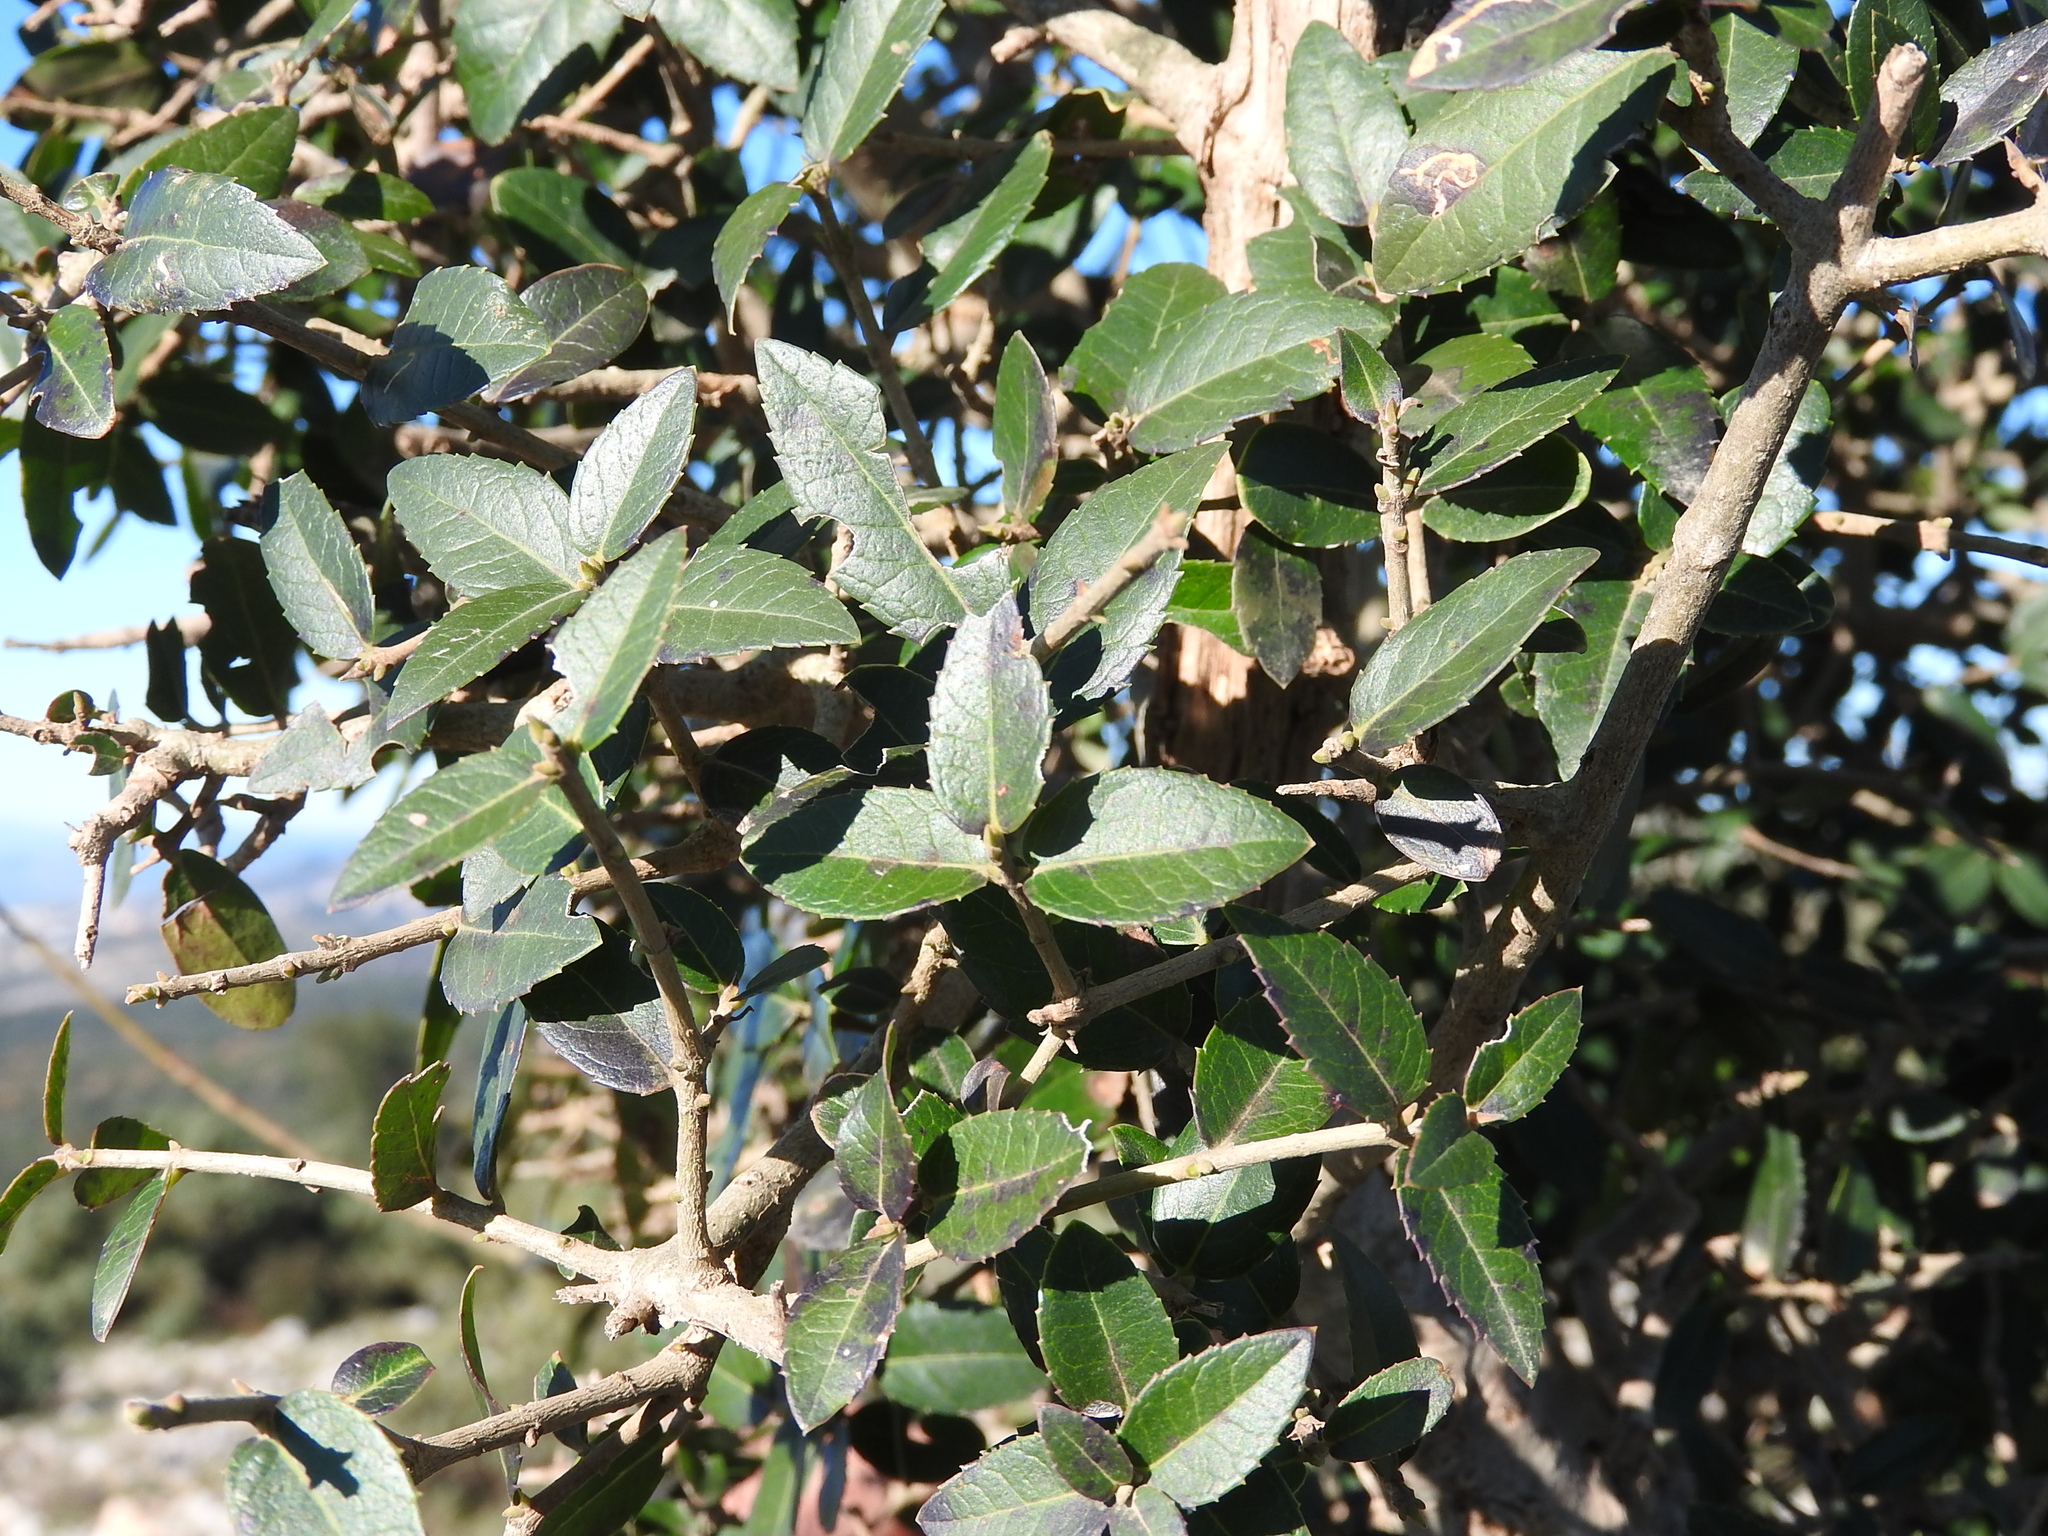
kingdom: Plantae
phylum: Tracheophyta
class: Magnoliopsida
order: Lamiales
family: Oleaceae
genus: Phillyrea
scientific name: Phillyrea latifolia
